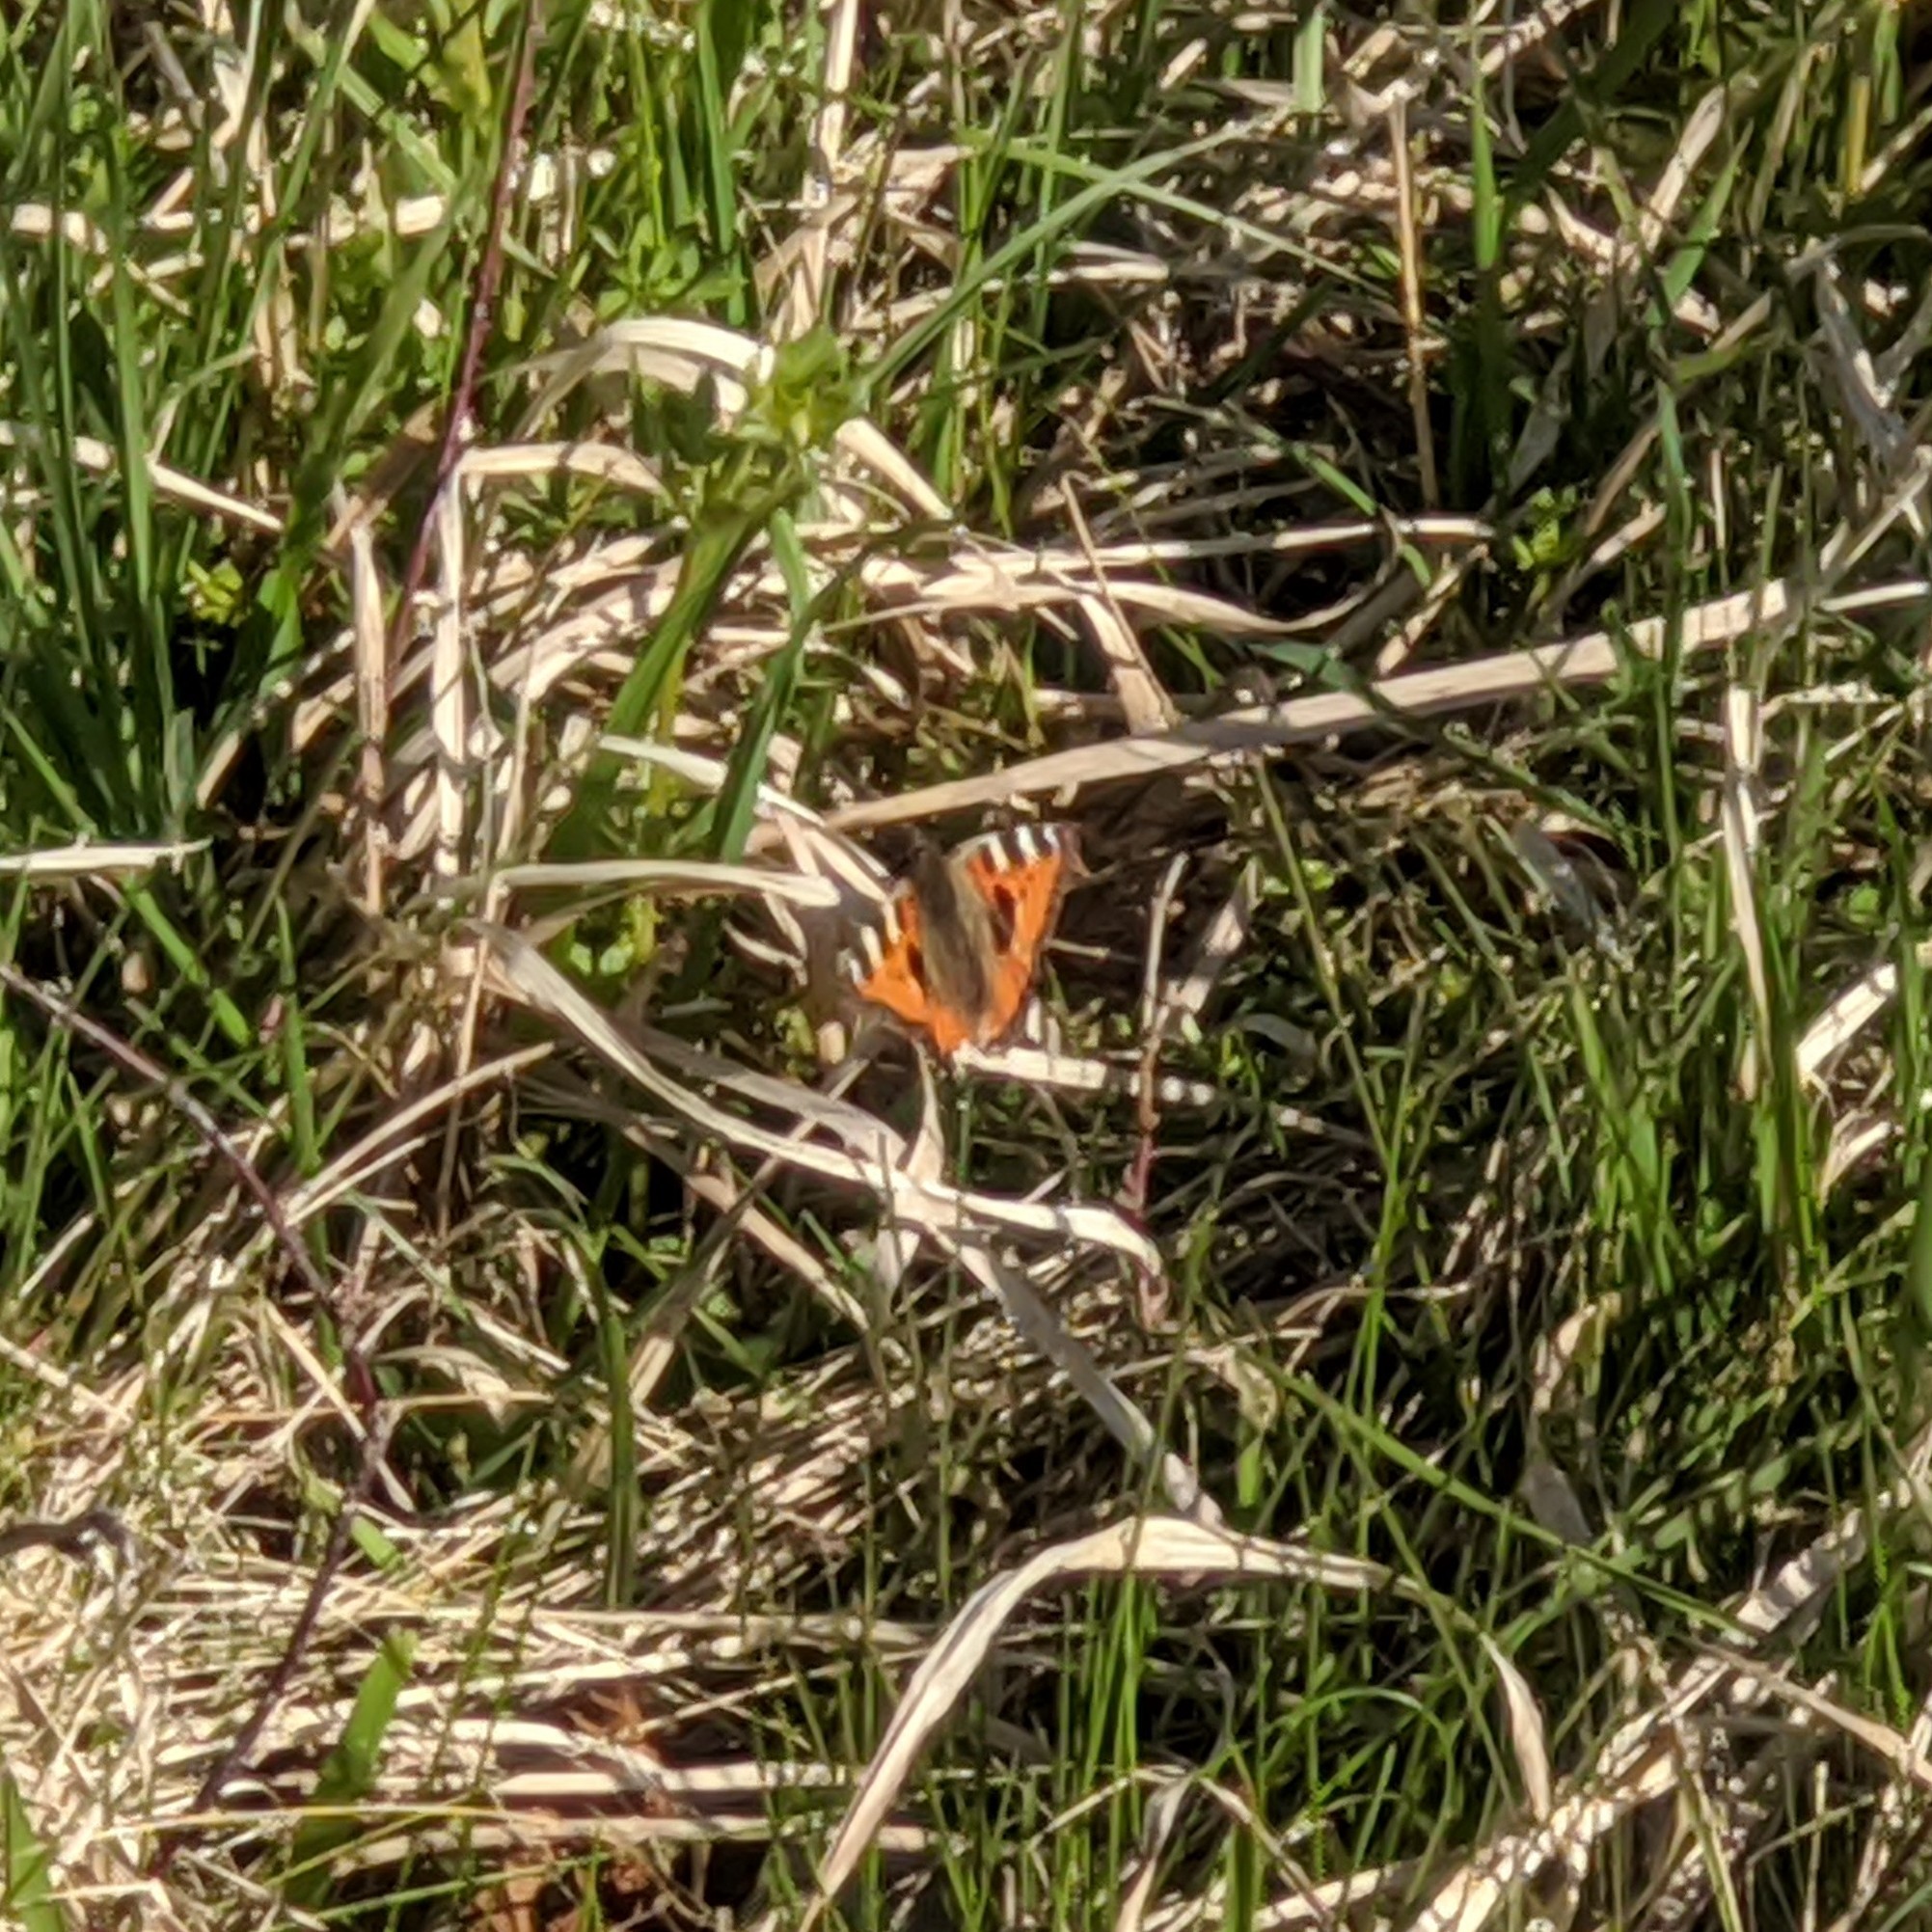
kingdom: Animalia
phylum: Arthropoda
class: Insecta
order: Lepidoptera
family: Nymphalidae
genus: Aglais
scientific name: Aglais urticae
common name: Small tortoiseshell
